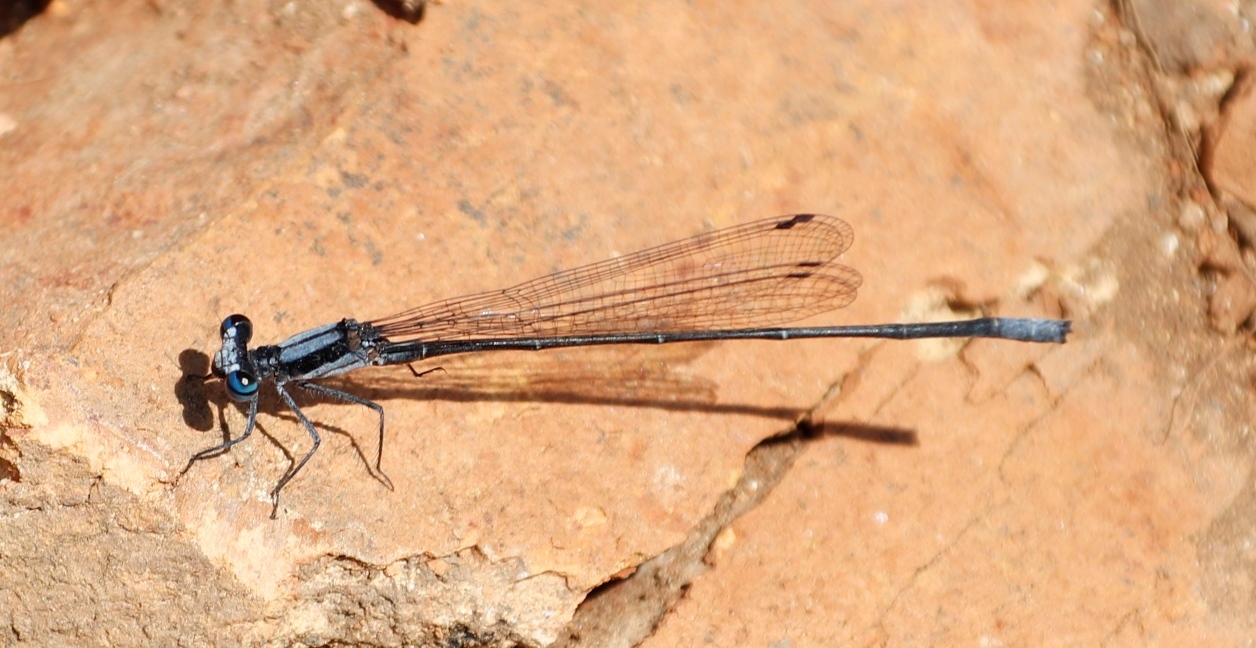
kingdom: Animalia
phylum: Arthropoda
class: Insecta
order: Odonata
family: Platycnemididae
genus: Elattoneura
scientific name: Elattoneura glauca
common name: Common threadtail
